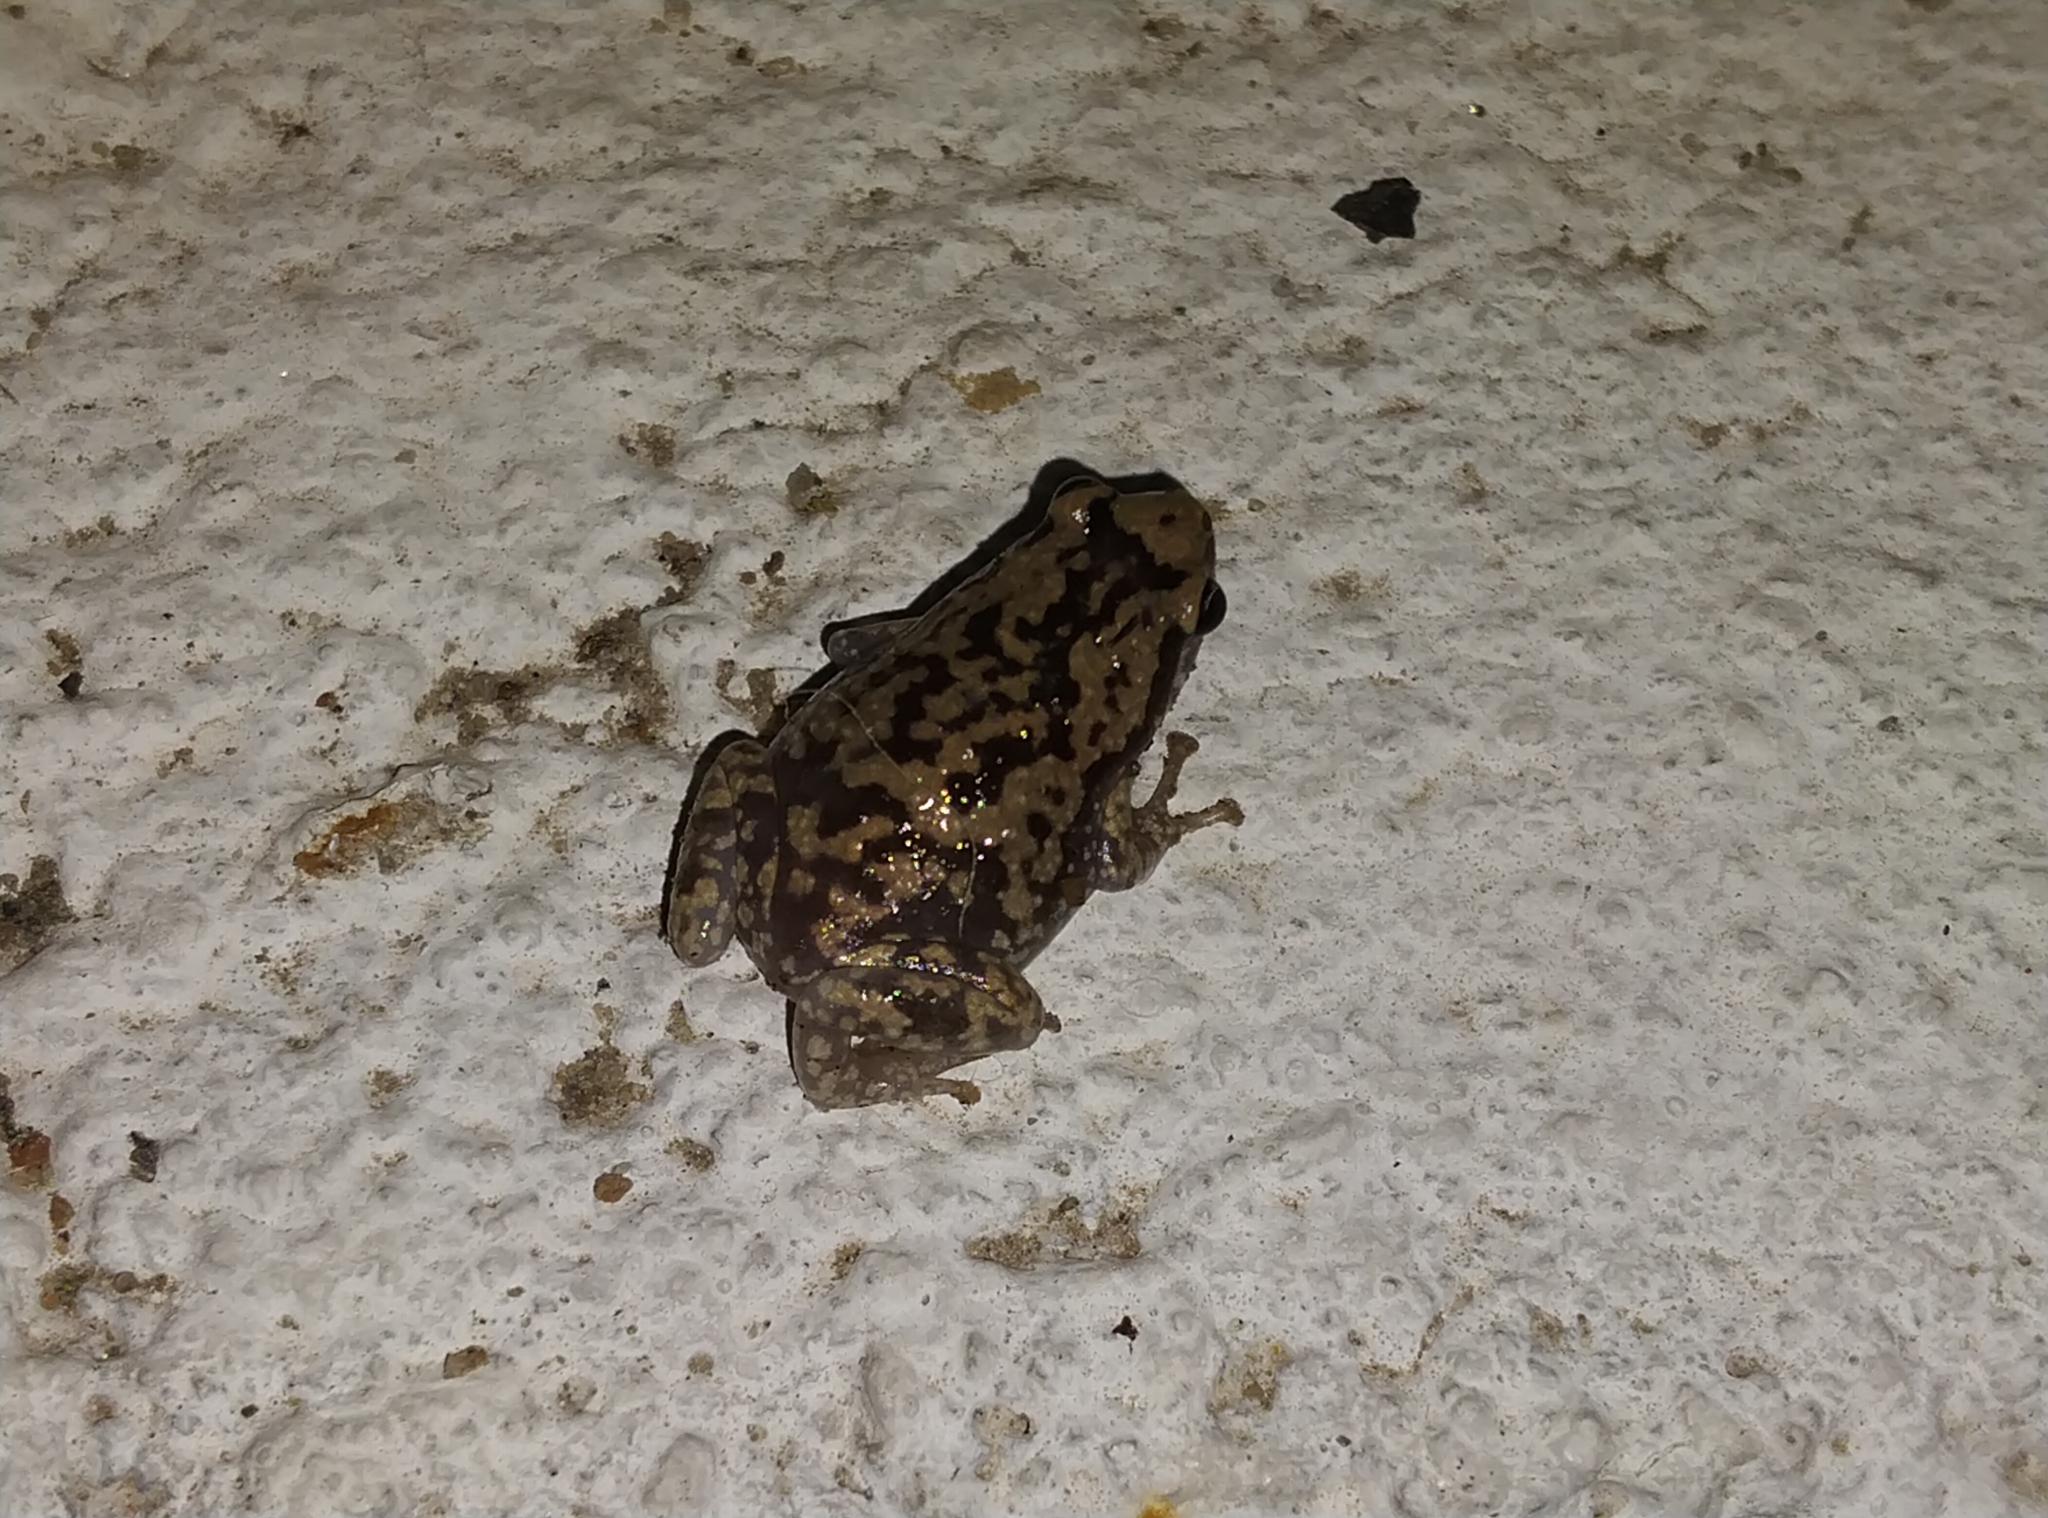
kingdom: Animalia
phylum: Chordata
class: Amphibia
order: Anura
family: Microhylidae
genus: Uperodon
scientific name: Uperodon variegatus
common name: Eluru dot frog
